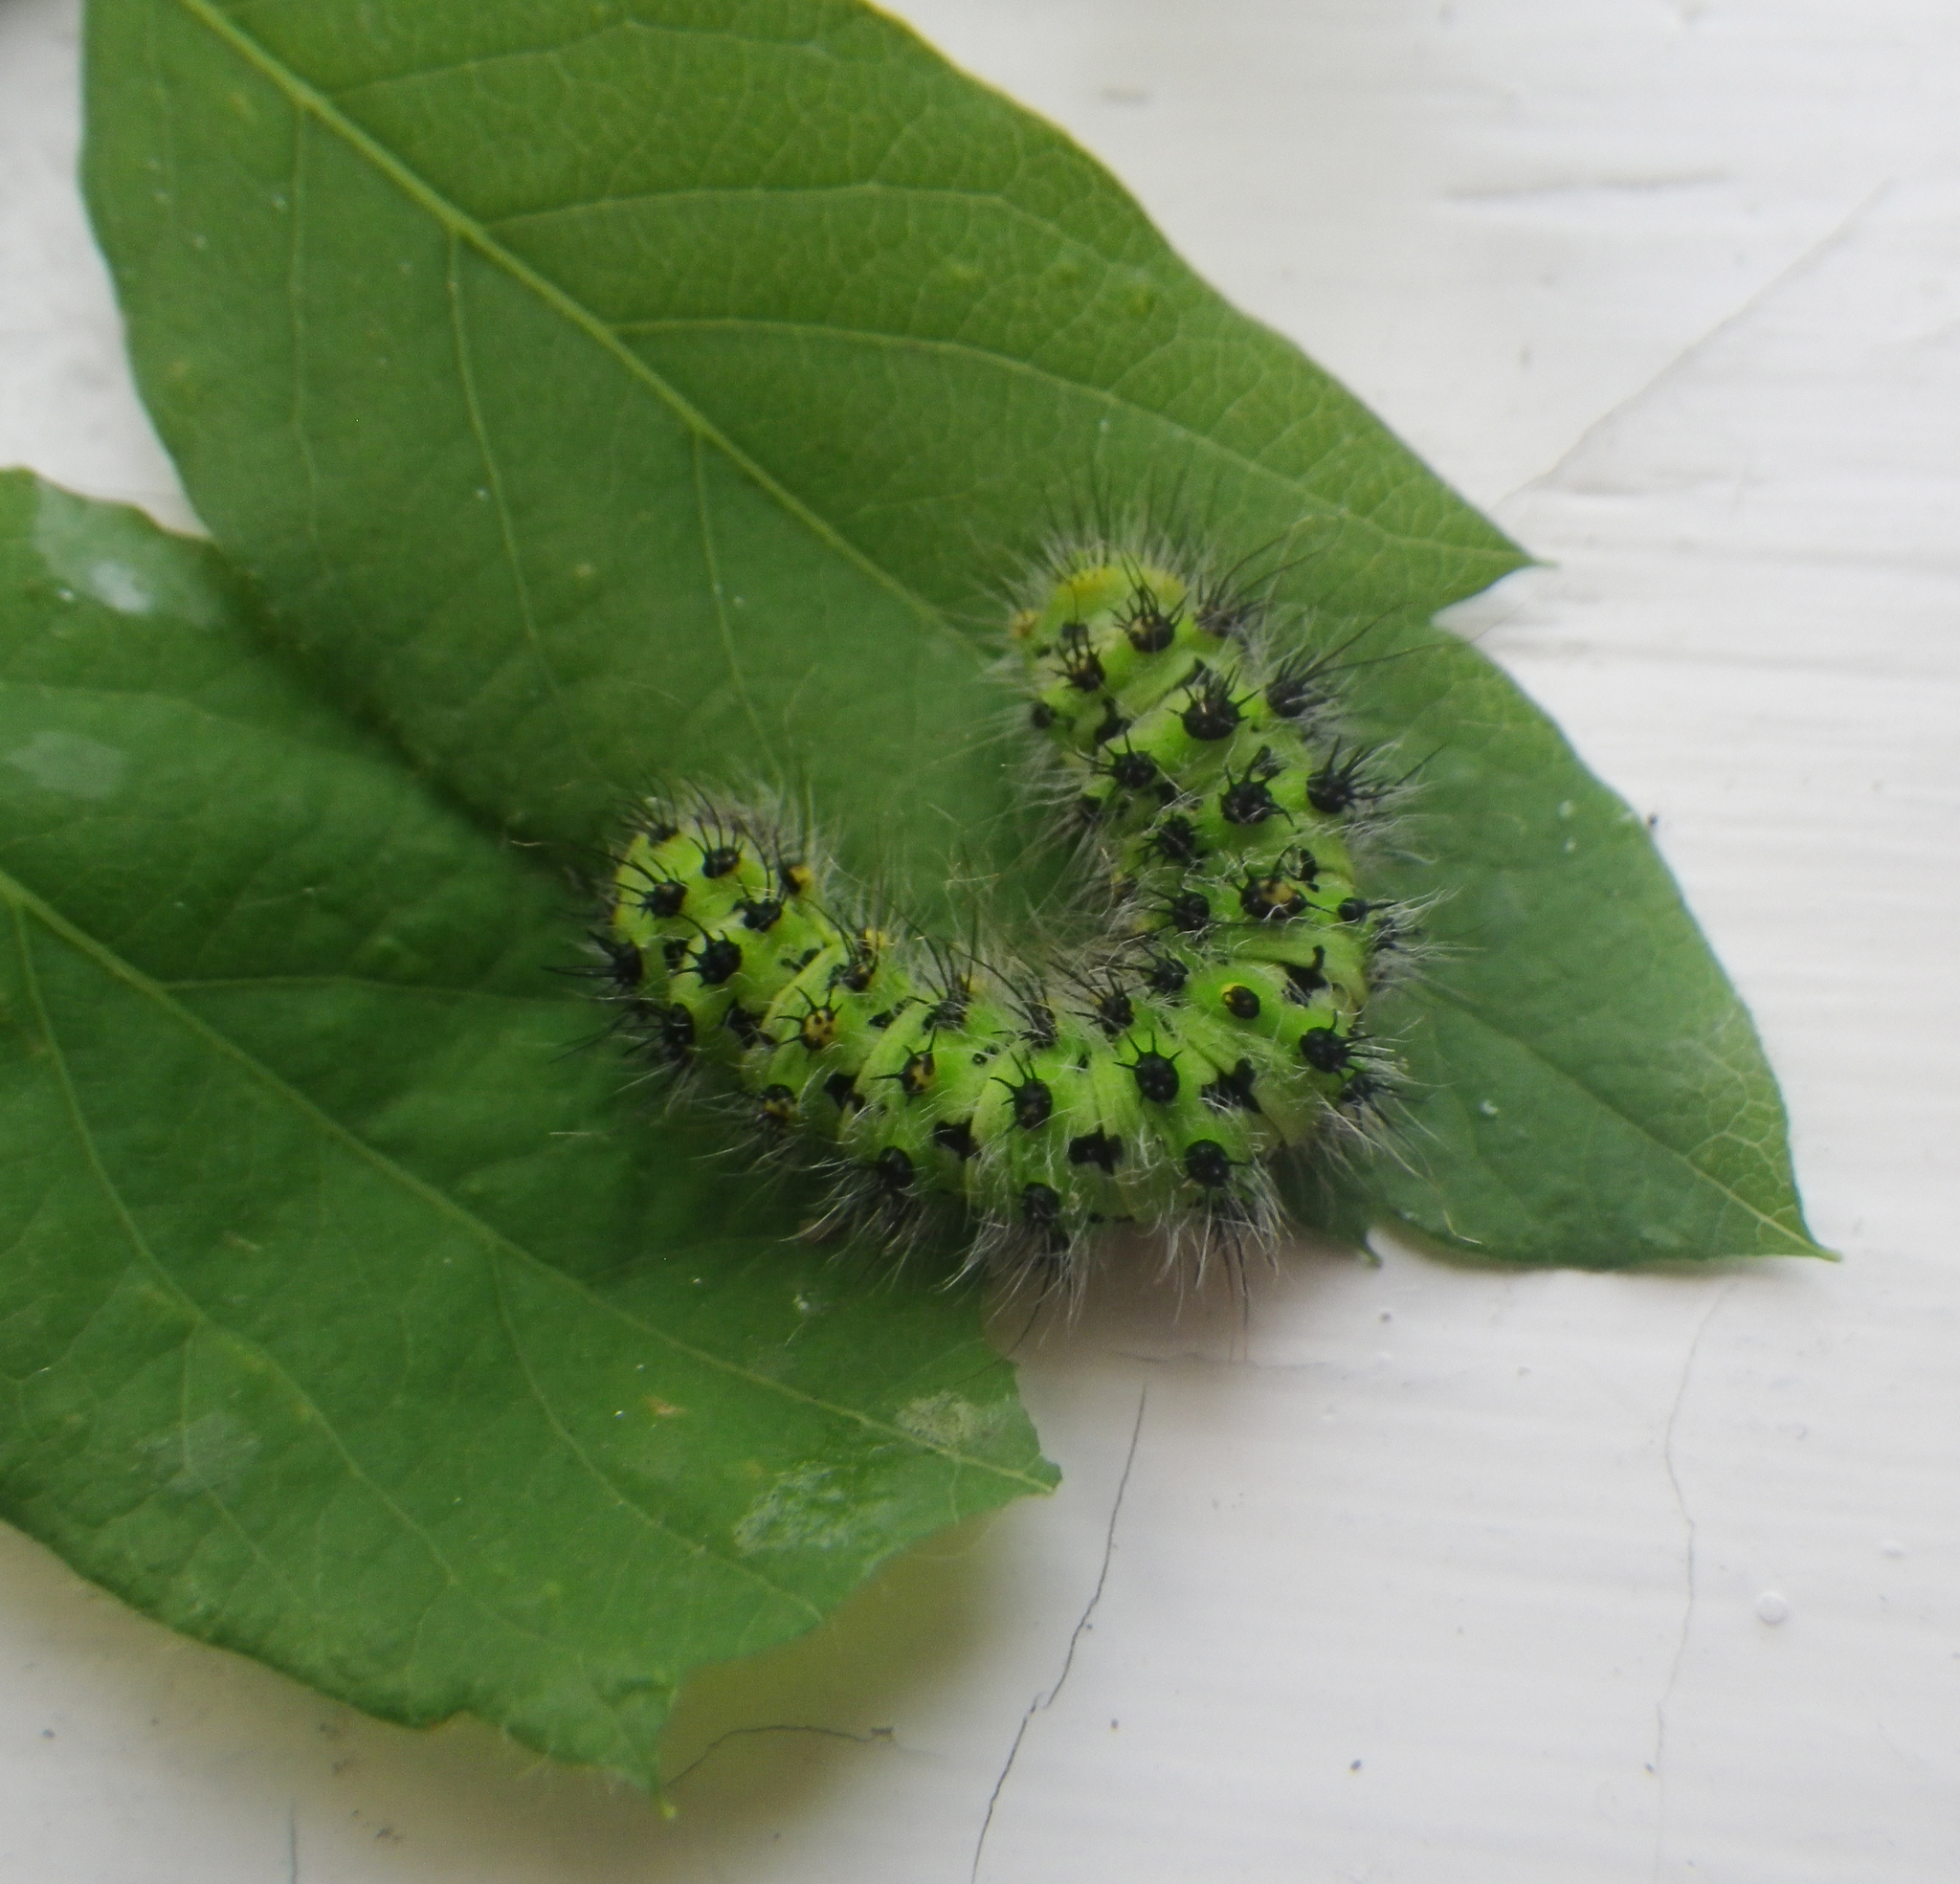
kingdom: Animalia
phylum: Arthropoda
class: Insecta
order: Lepidoptera
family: Saturniidae
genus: Saturnia
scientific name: Saturnia pavonia
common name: Emperor moth
